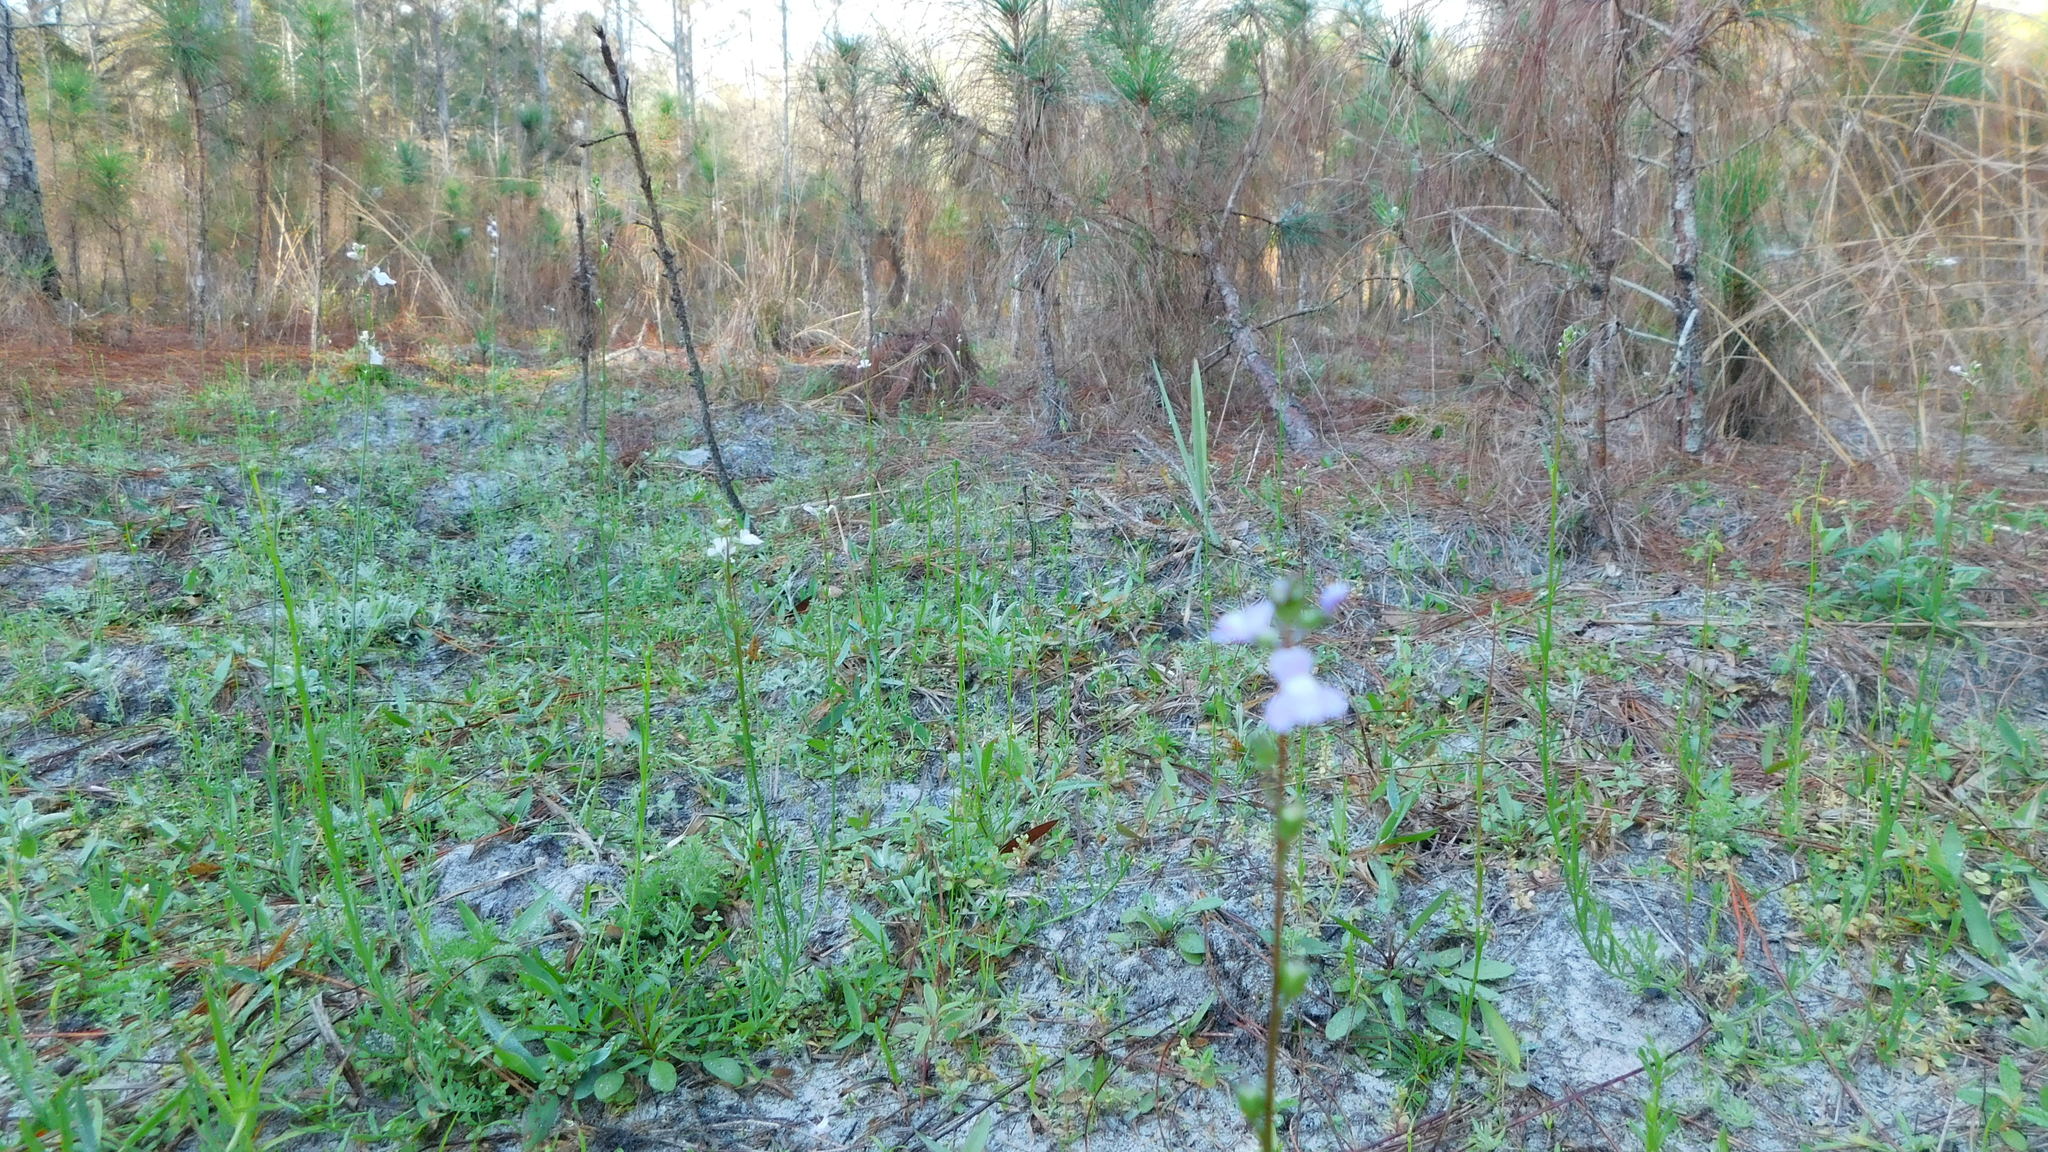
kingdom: Plantae
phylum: Tracheophyta
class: Magnoliopsida
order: Lamiales
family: Plantaginaceae
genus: Nuttallanthus
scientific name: Nuttallanthus canadensis
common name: Blue toadflax
